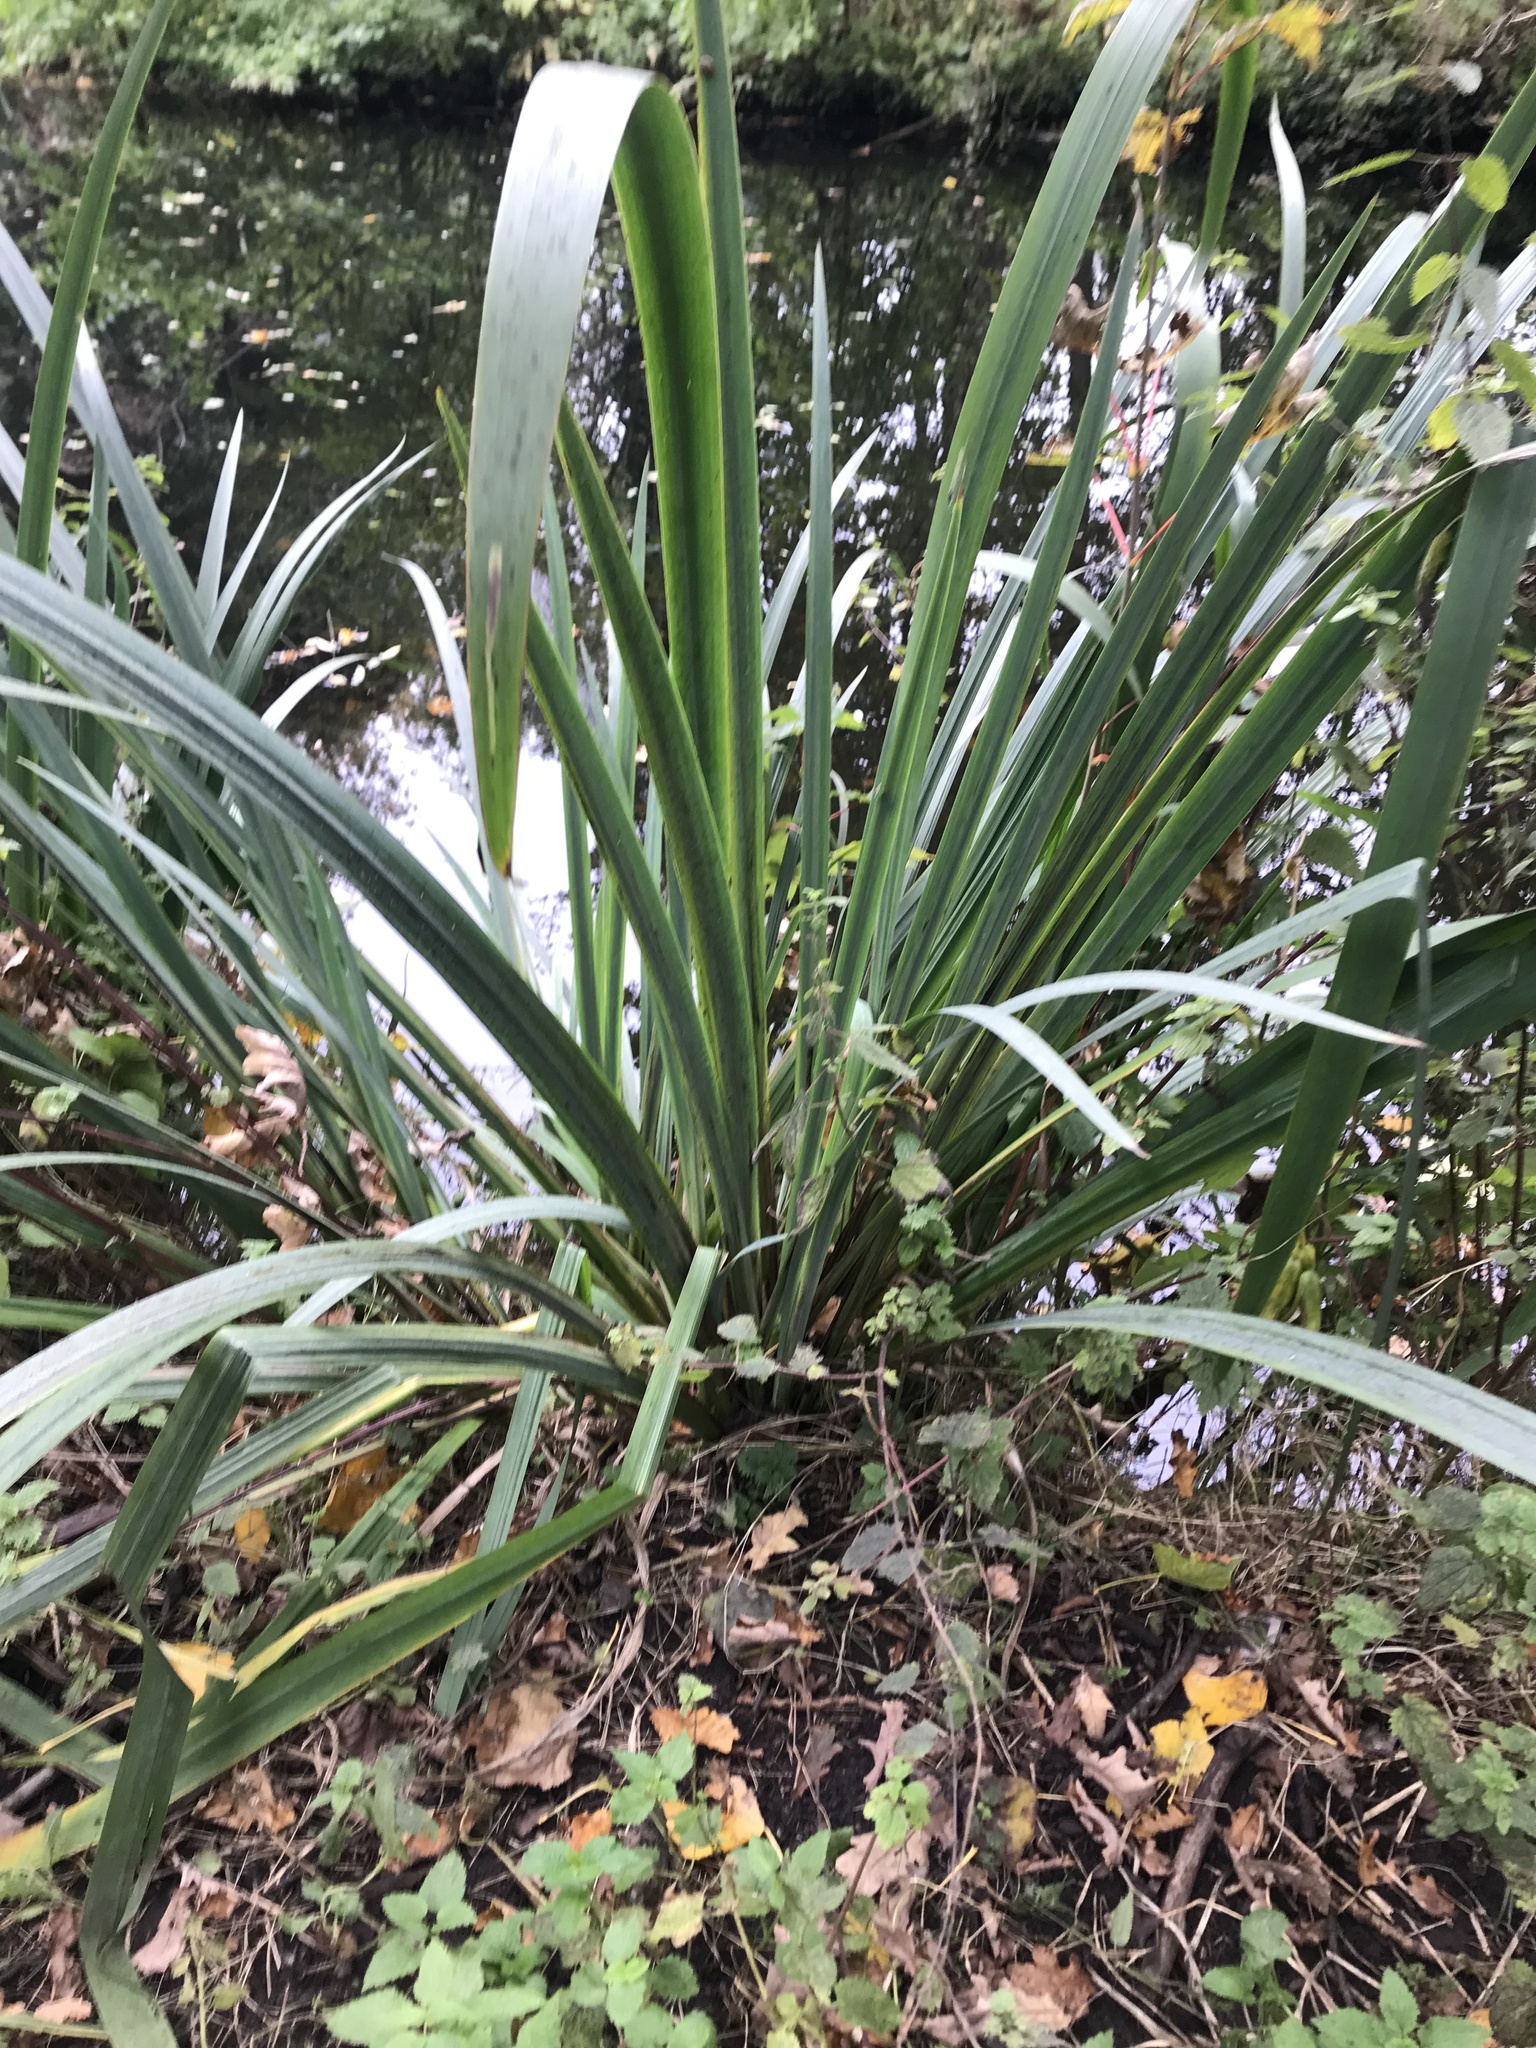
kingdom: Plantae
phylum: Tracheophyta
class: Liliopsida
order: Asparagales
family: Iridaceae
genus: Iris
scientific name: Iris pseudacorus
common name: Yellow flag
